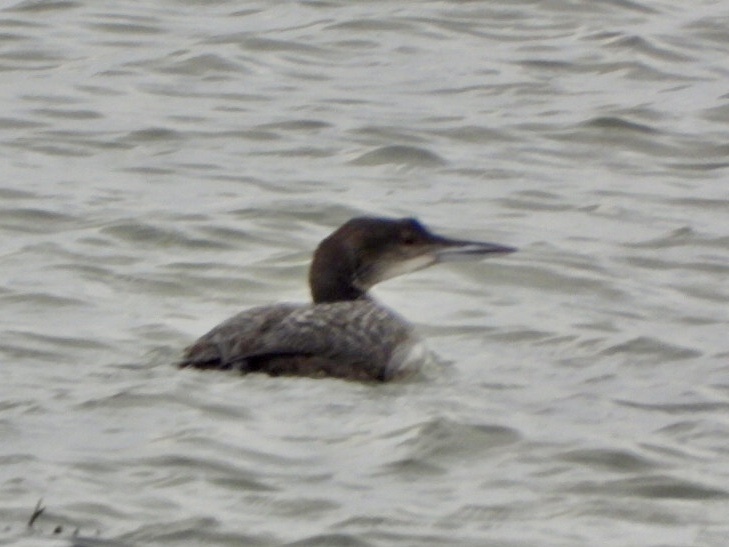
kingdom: Animalia
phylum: Chordata
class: Aves
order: Gaviiformes
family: Gaviidae
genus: Gavia
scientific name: Gavia immer
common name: Common loon
